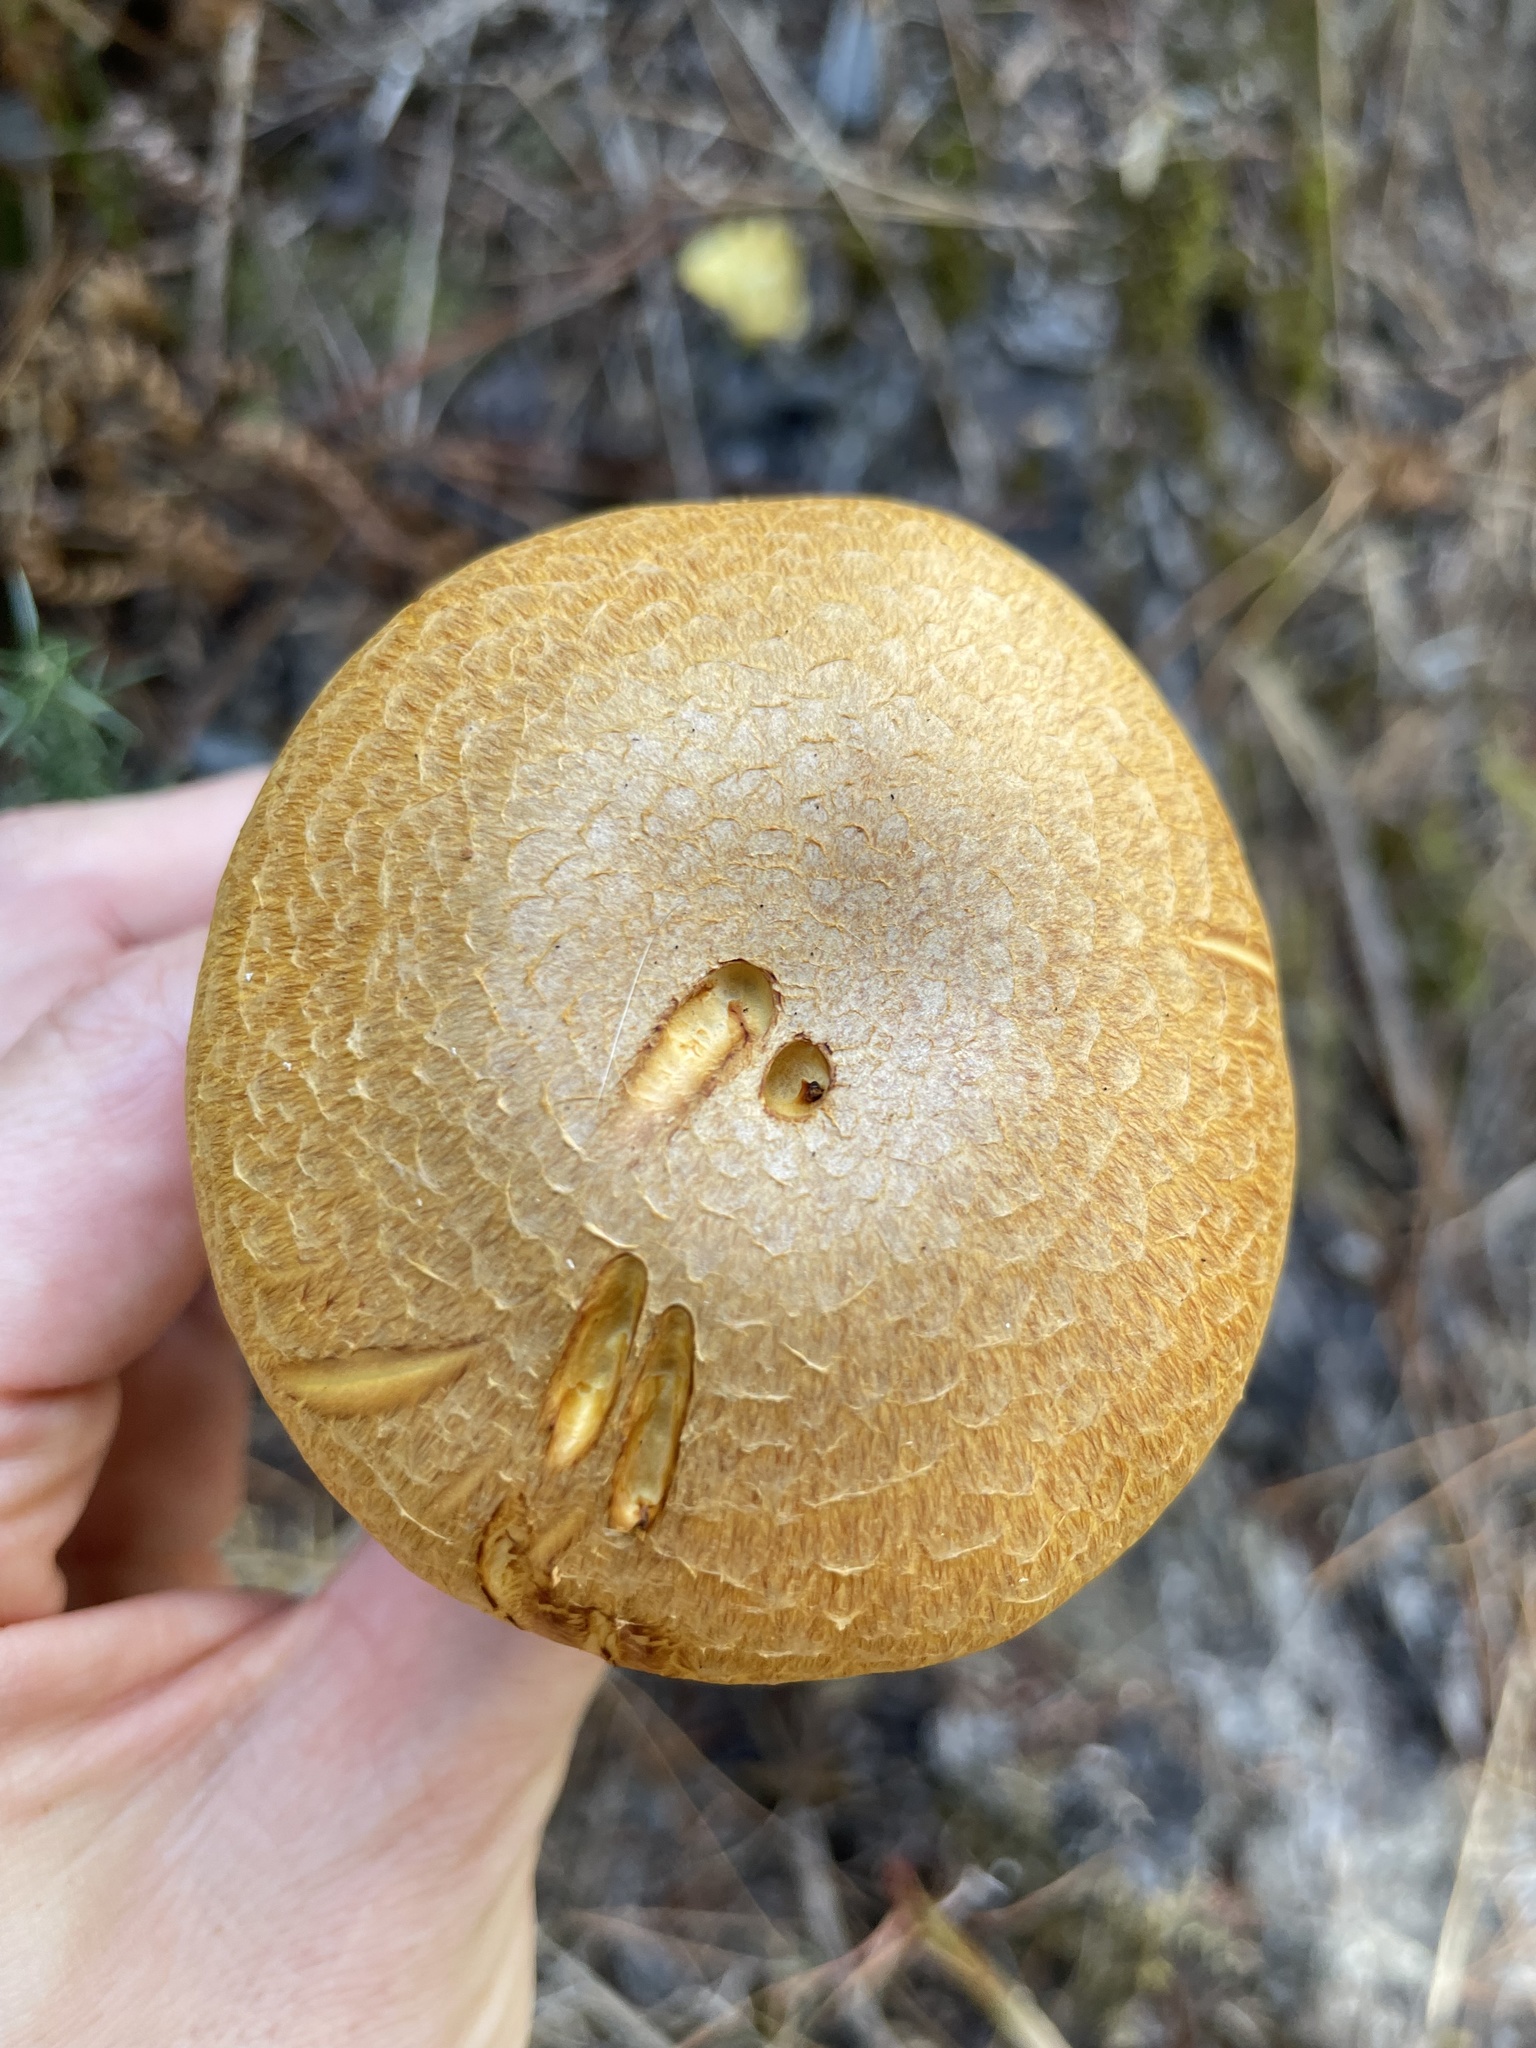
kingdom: Fungi
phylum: Basidiomycota
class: Agaricomycetes
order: Agaricales
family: Hymenogastraceae
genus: Gymnopilus
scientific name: Gymnopilus junonius
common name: Spectacular rustgill
